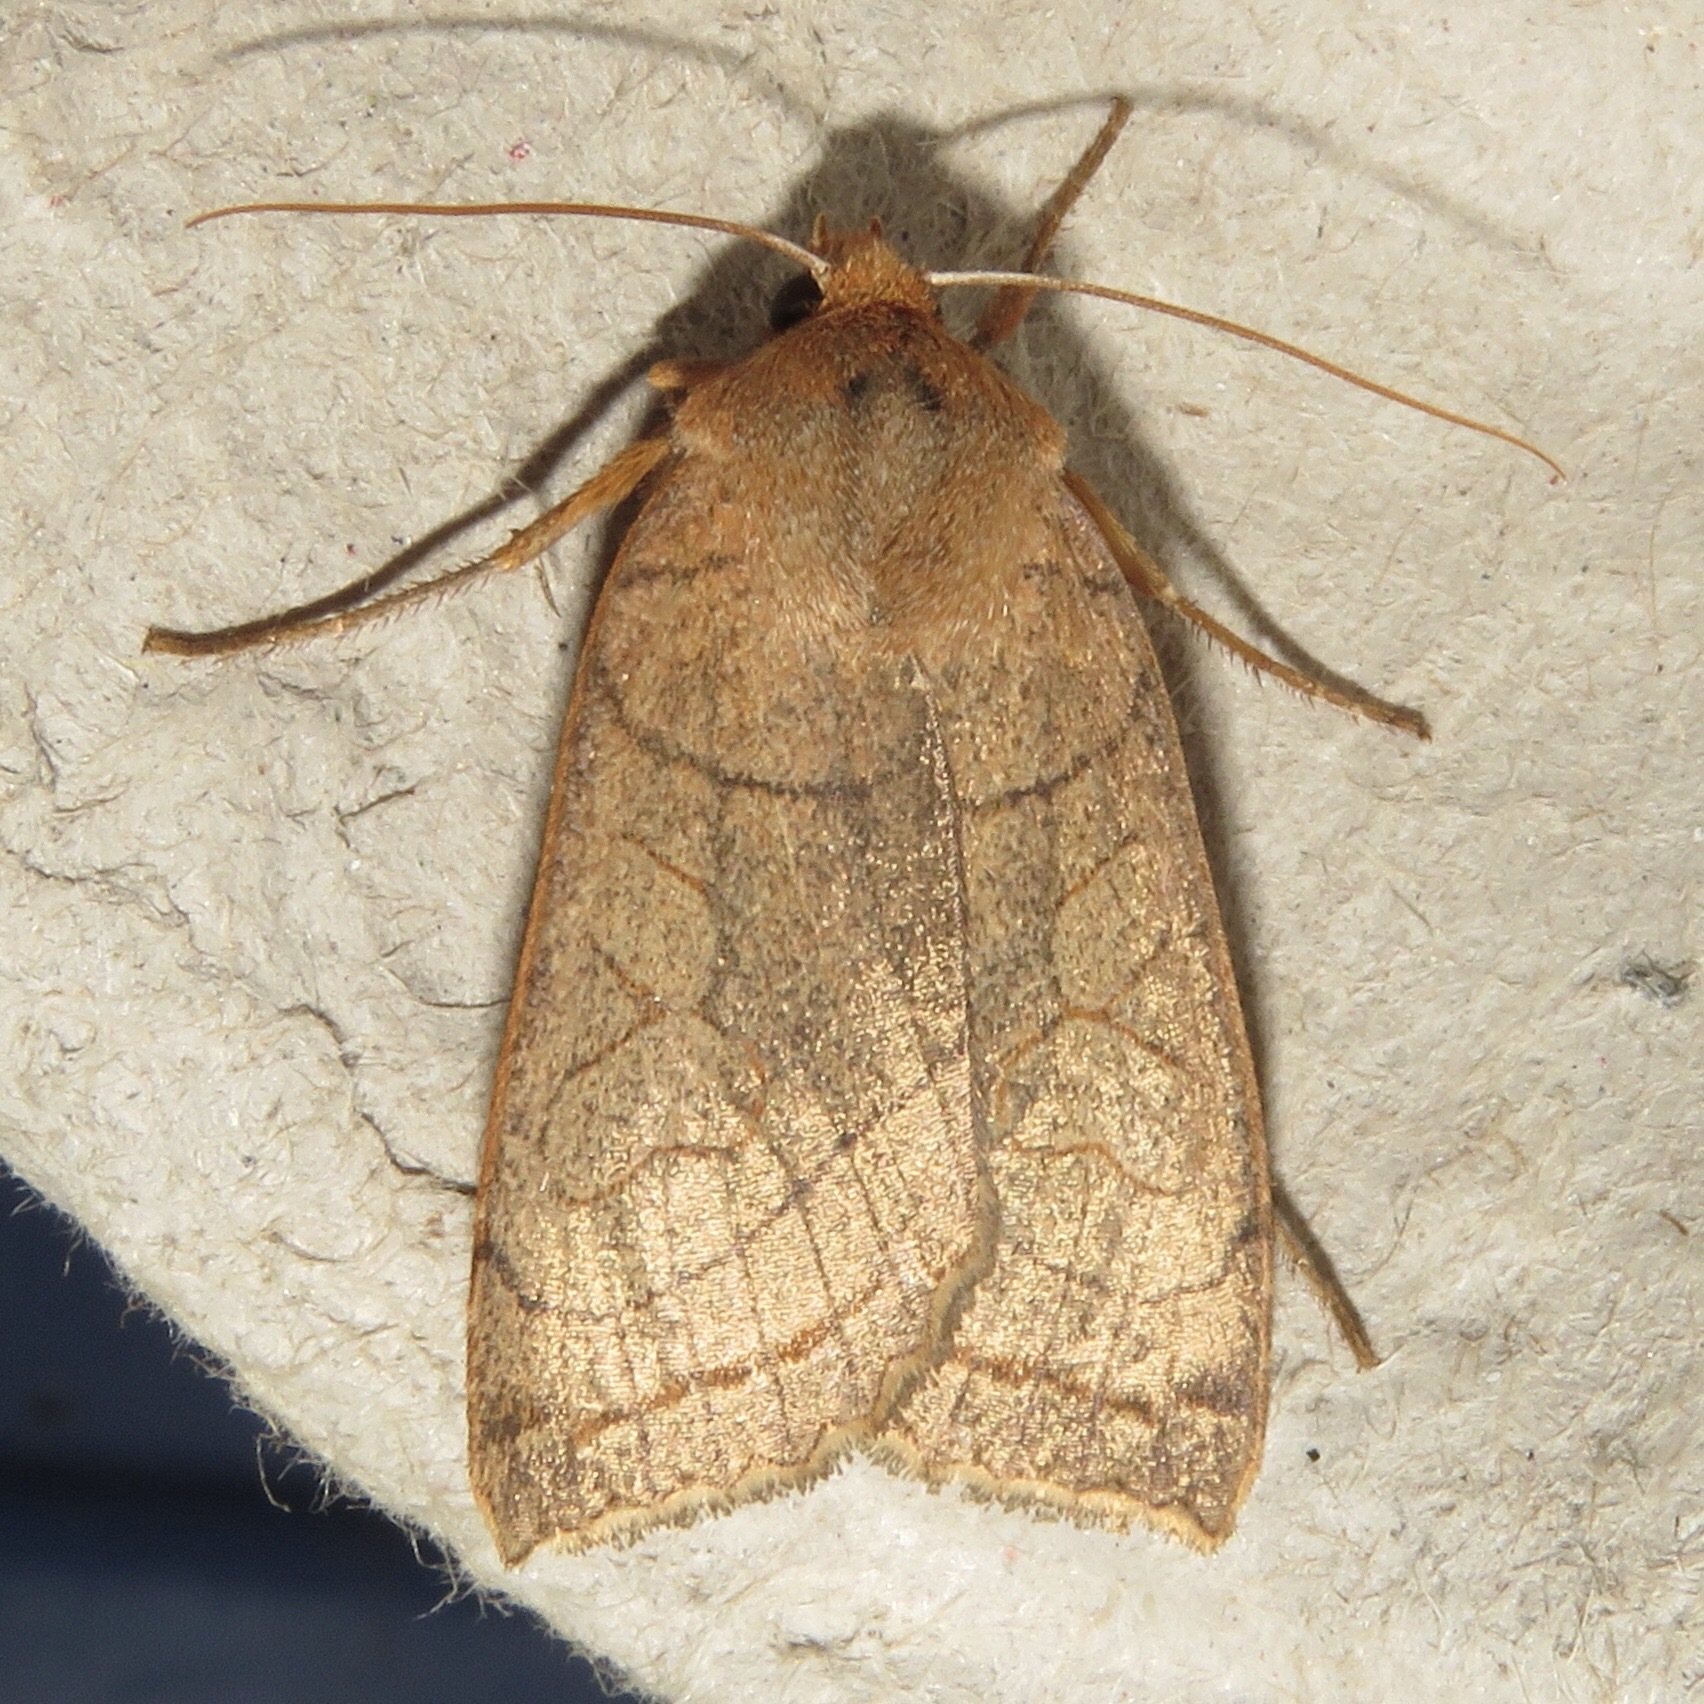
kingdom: Animalia
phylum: Arthropoda
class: Insecta
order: Lepidoptera
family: Noctuidae
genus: Metaxaglaea
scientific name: Metaxaglaea inulta
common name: Unsated sallow
